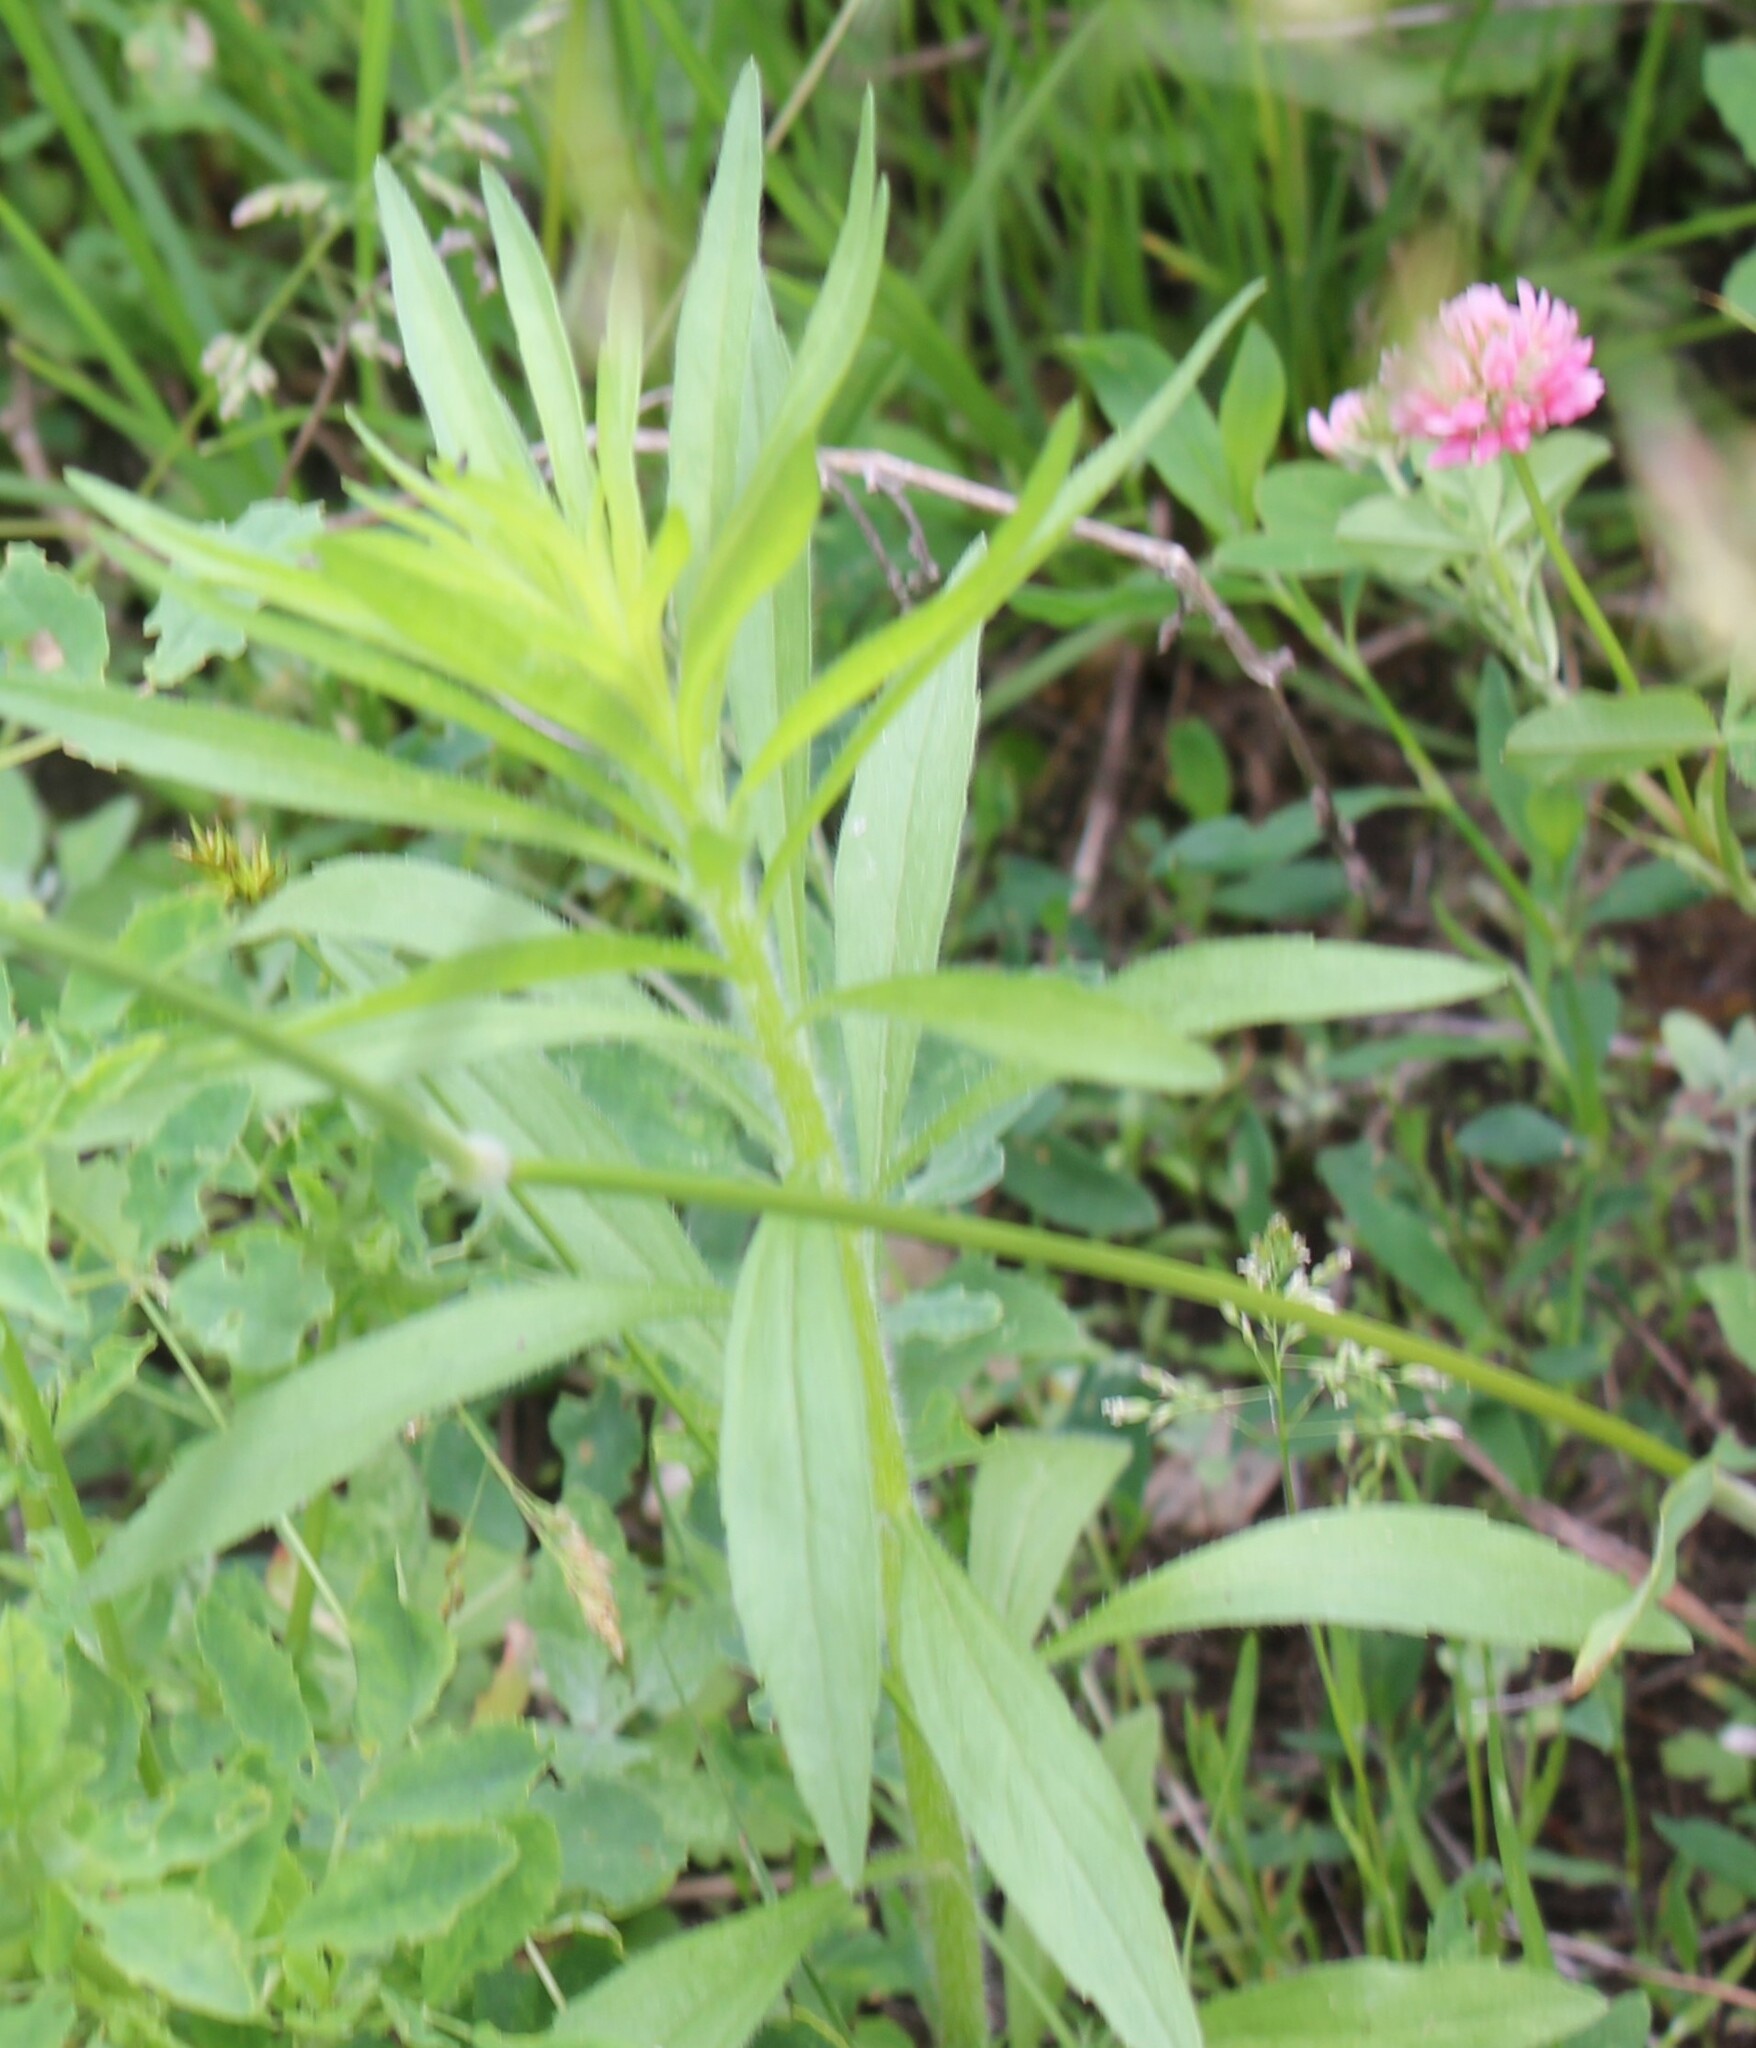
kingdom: Plantae
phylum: Tracheophyta
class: Magnoliopsida
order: Asterales
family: Asteraceae
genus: Erigeron
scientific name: Erigeron canadensis
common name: Canadian fleabane
